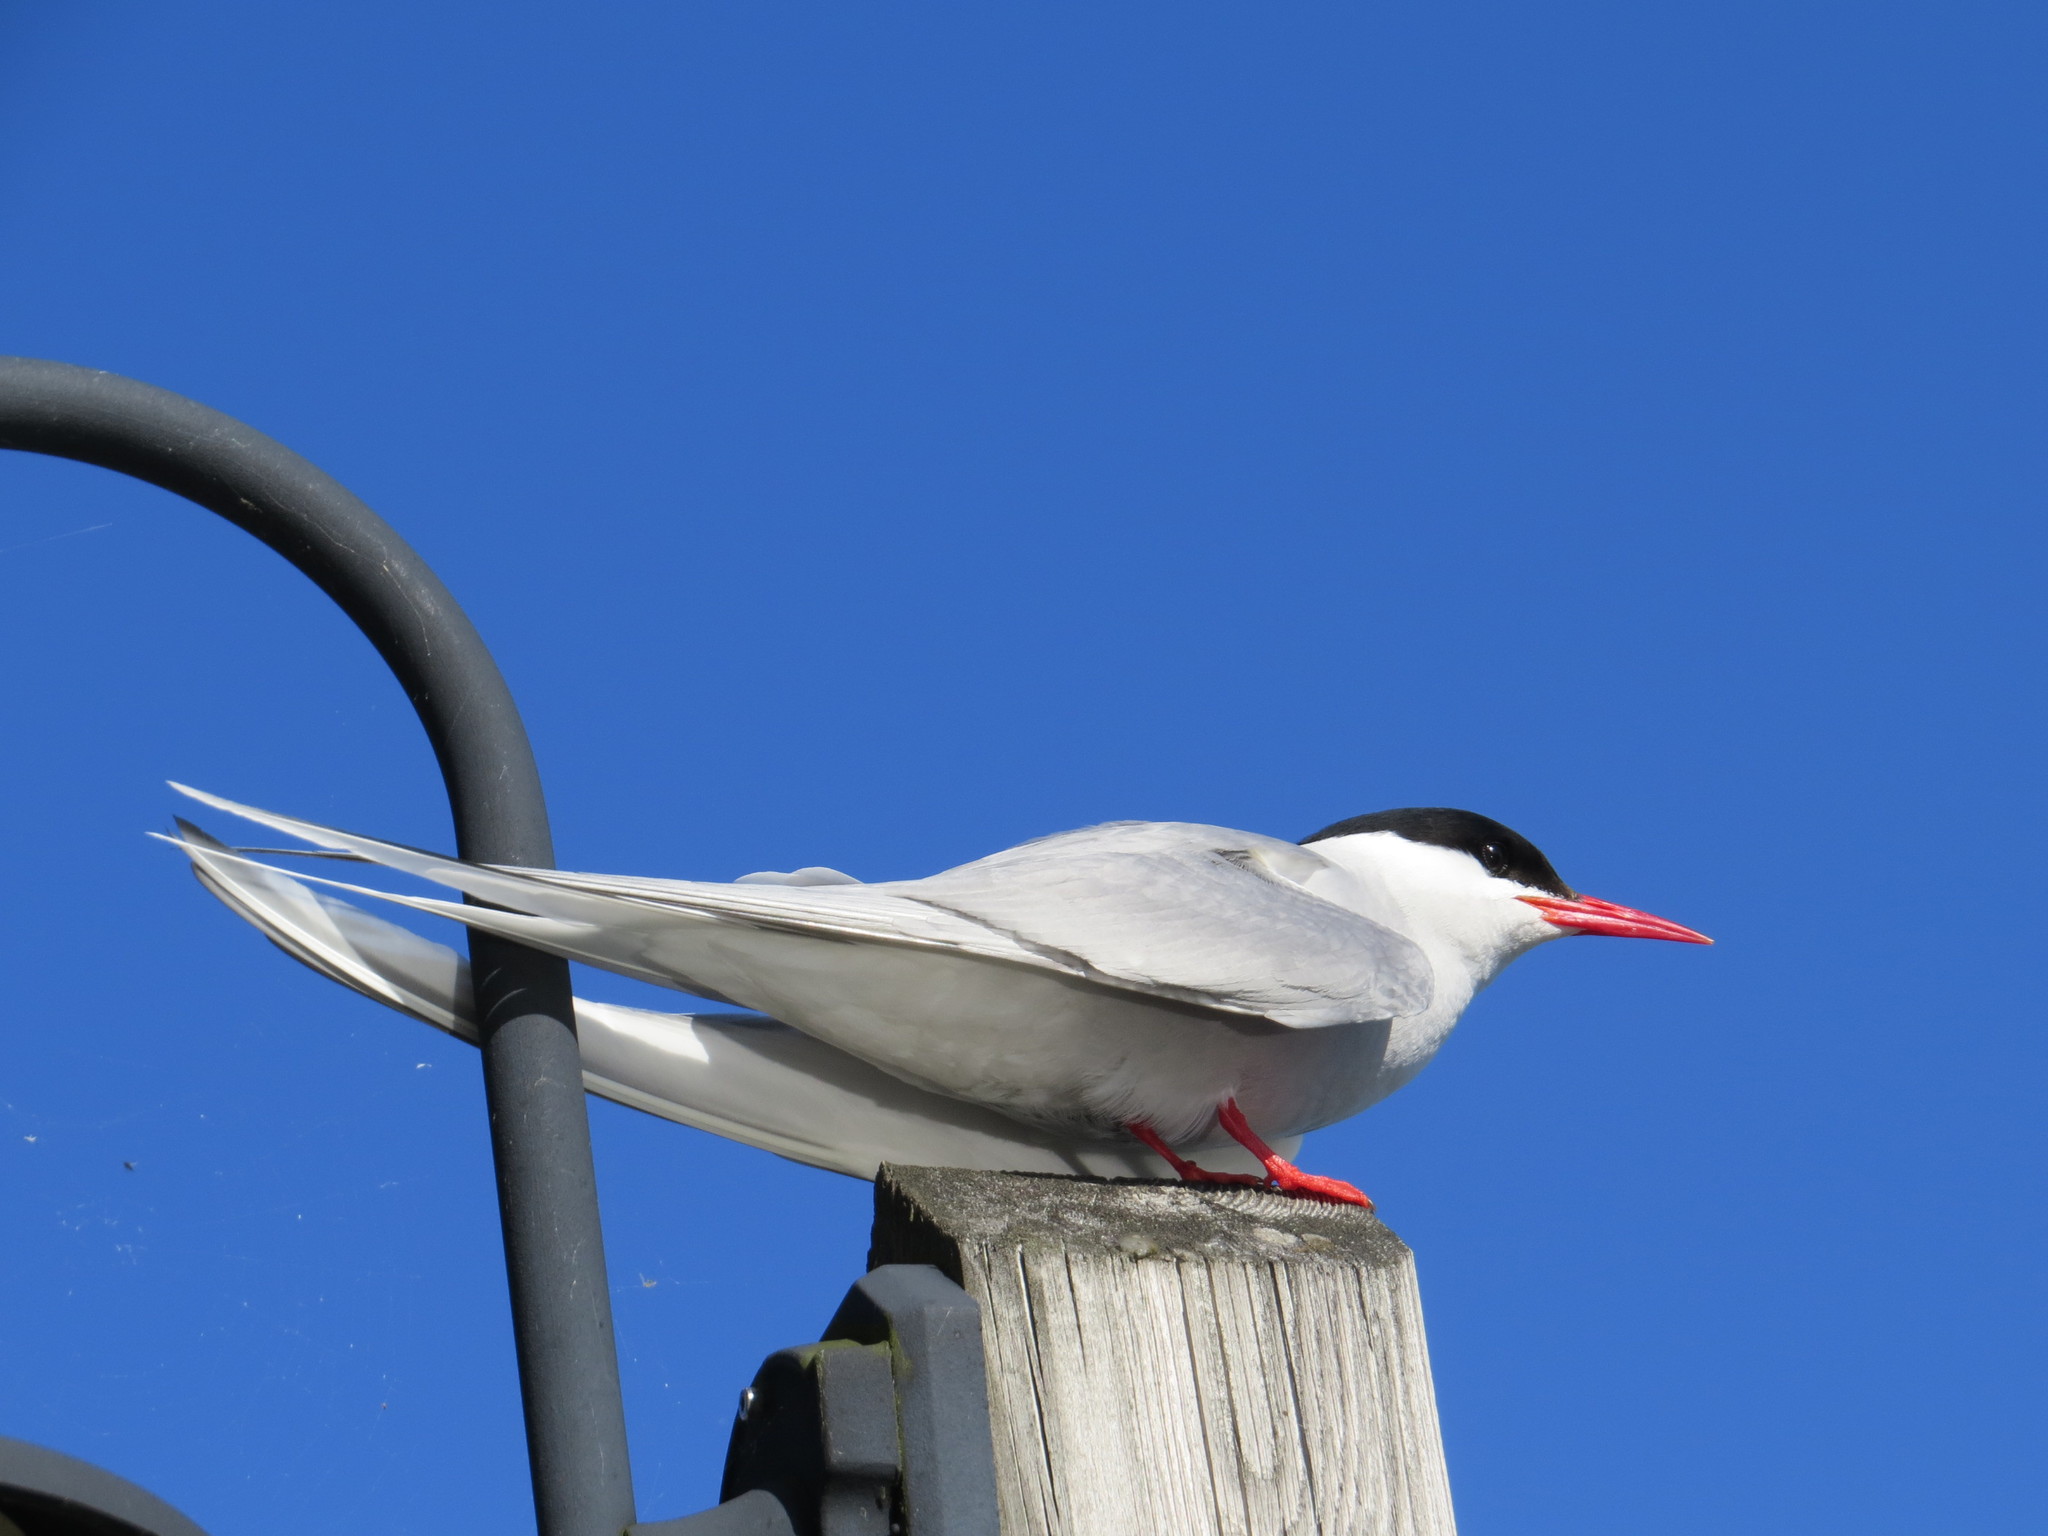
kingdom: Animalia
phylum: Chordata
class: Aves
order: Charadriiformes
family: Laridae
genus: Sterna
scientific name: Sterna paradisaea
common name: Arctic tern
